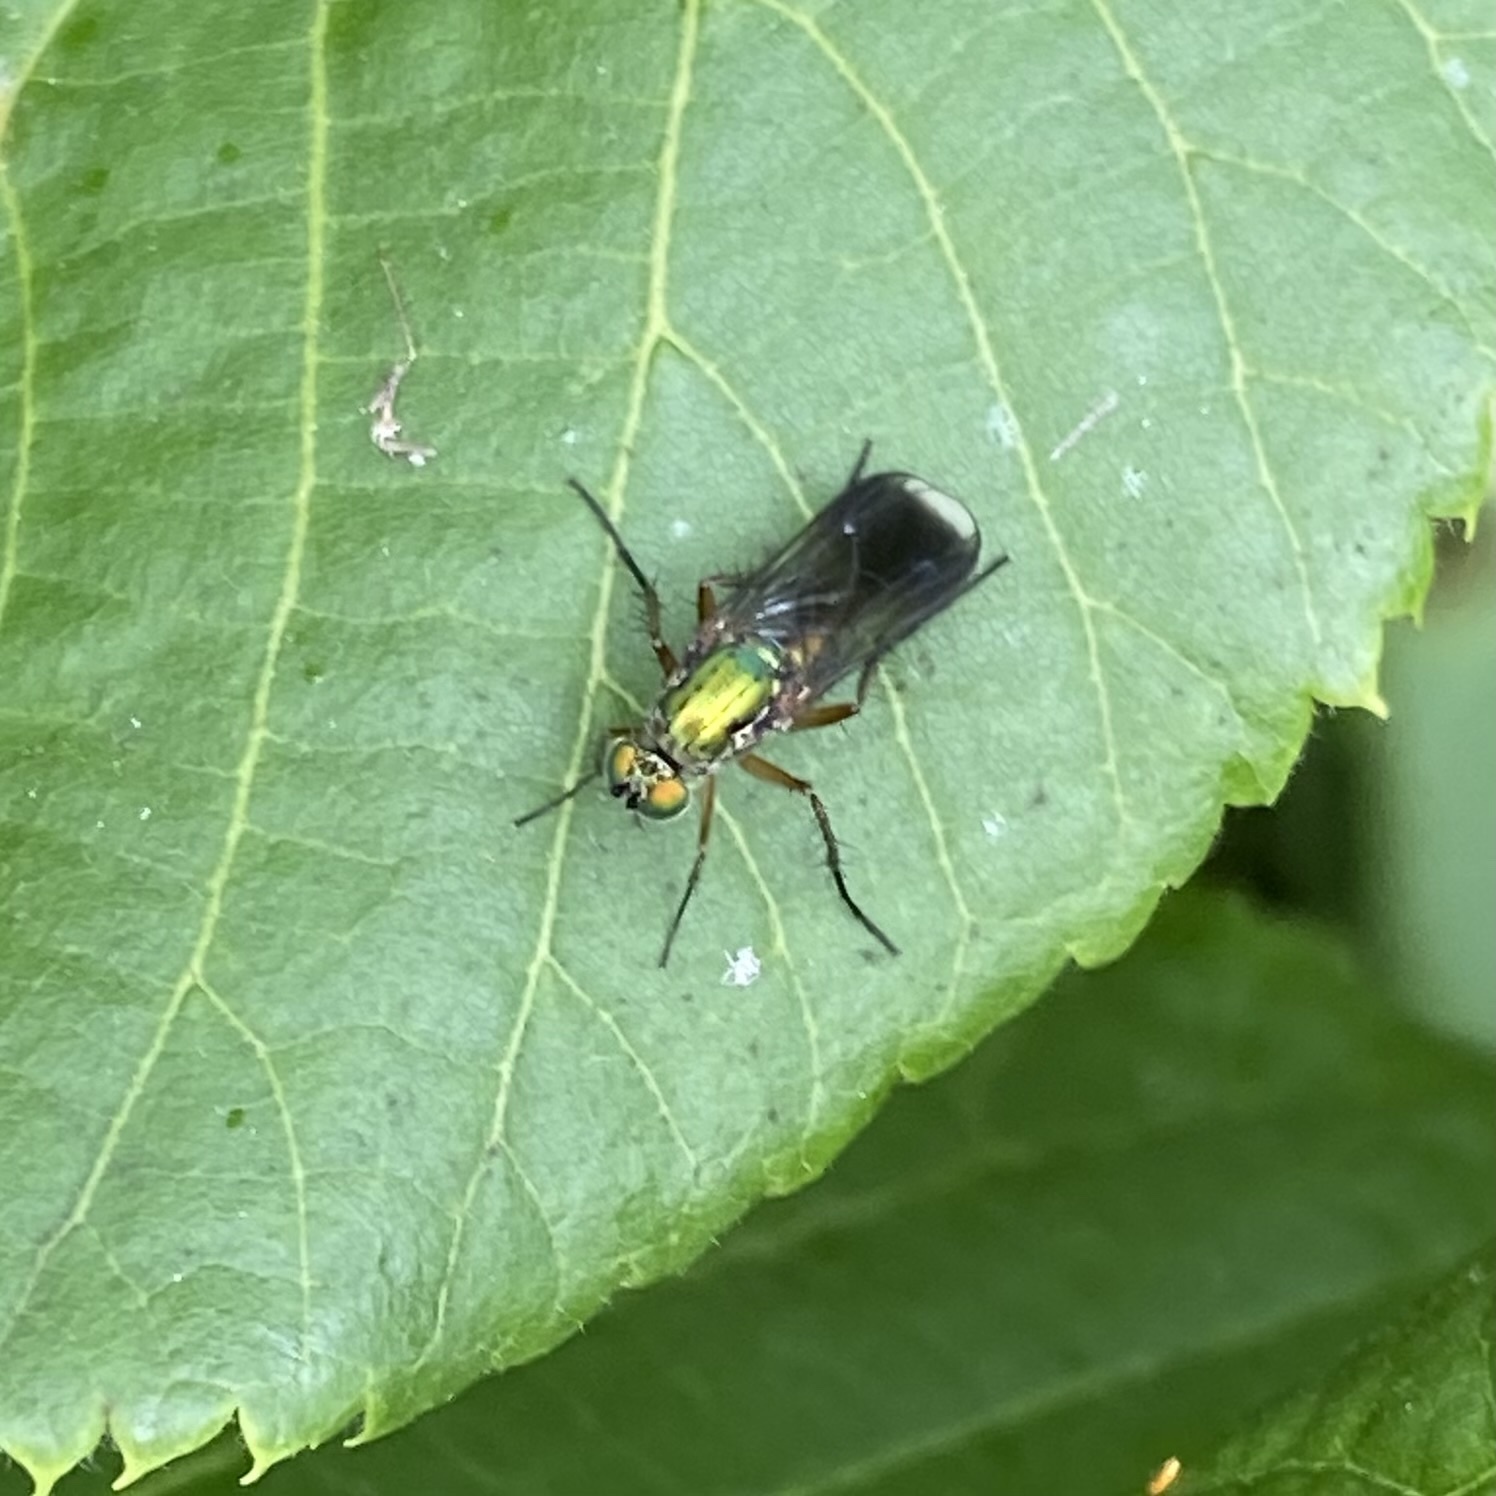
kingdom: Animalia
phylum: Arthropoda
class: Insecta
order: Diptera
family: Dolichopodidae
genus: Poecilobothrus
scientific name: Poecilobothrus nobilitatus
